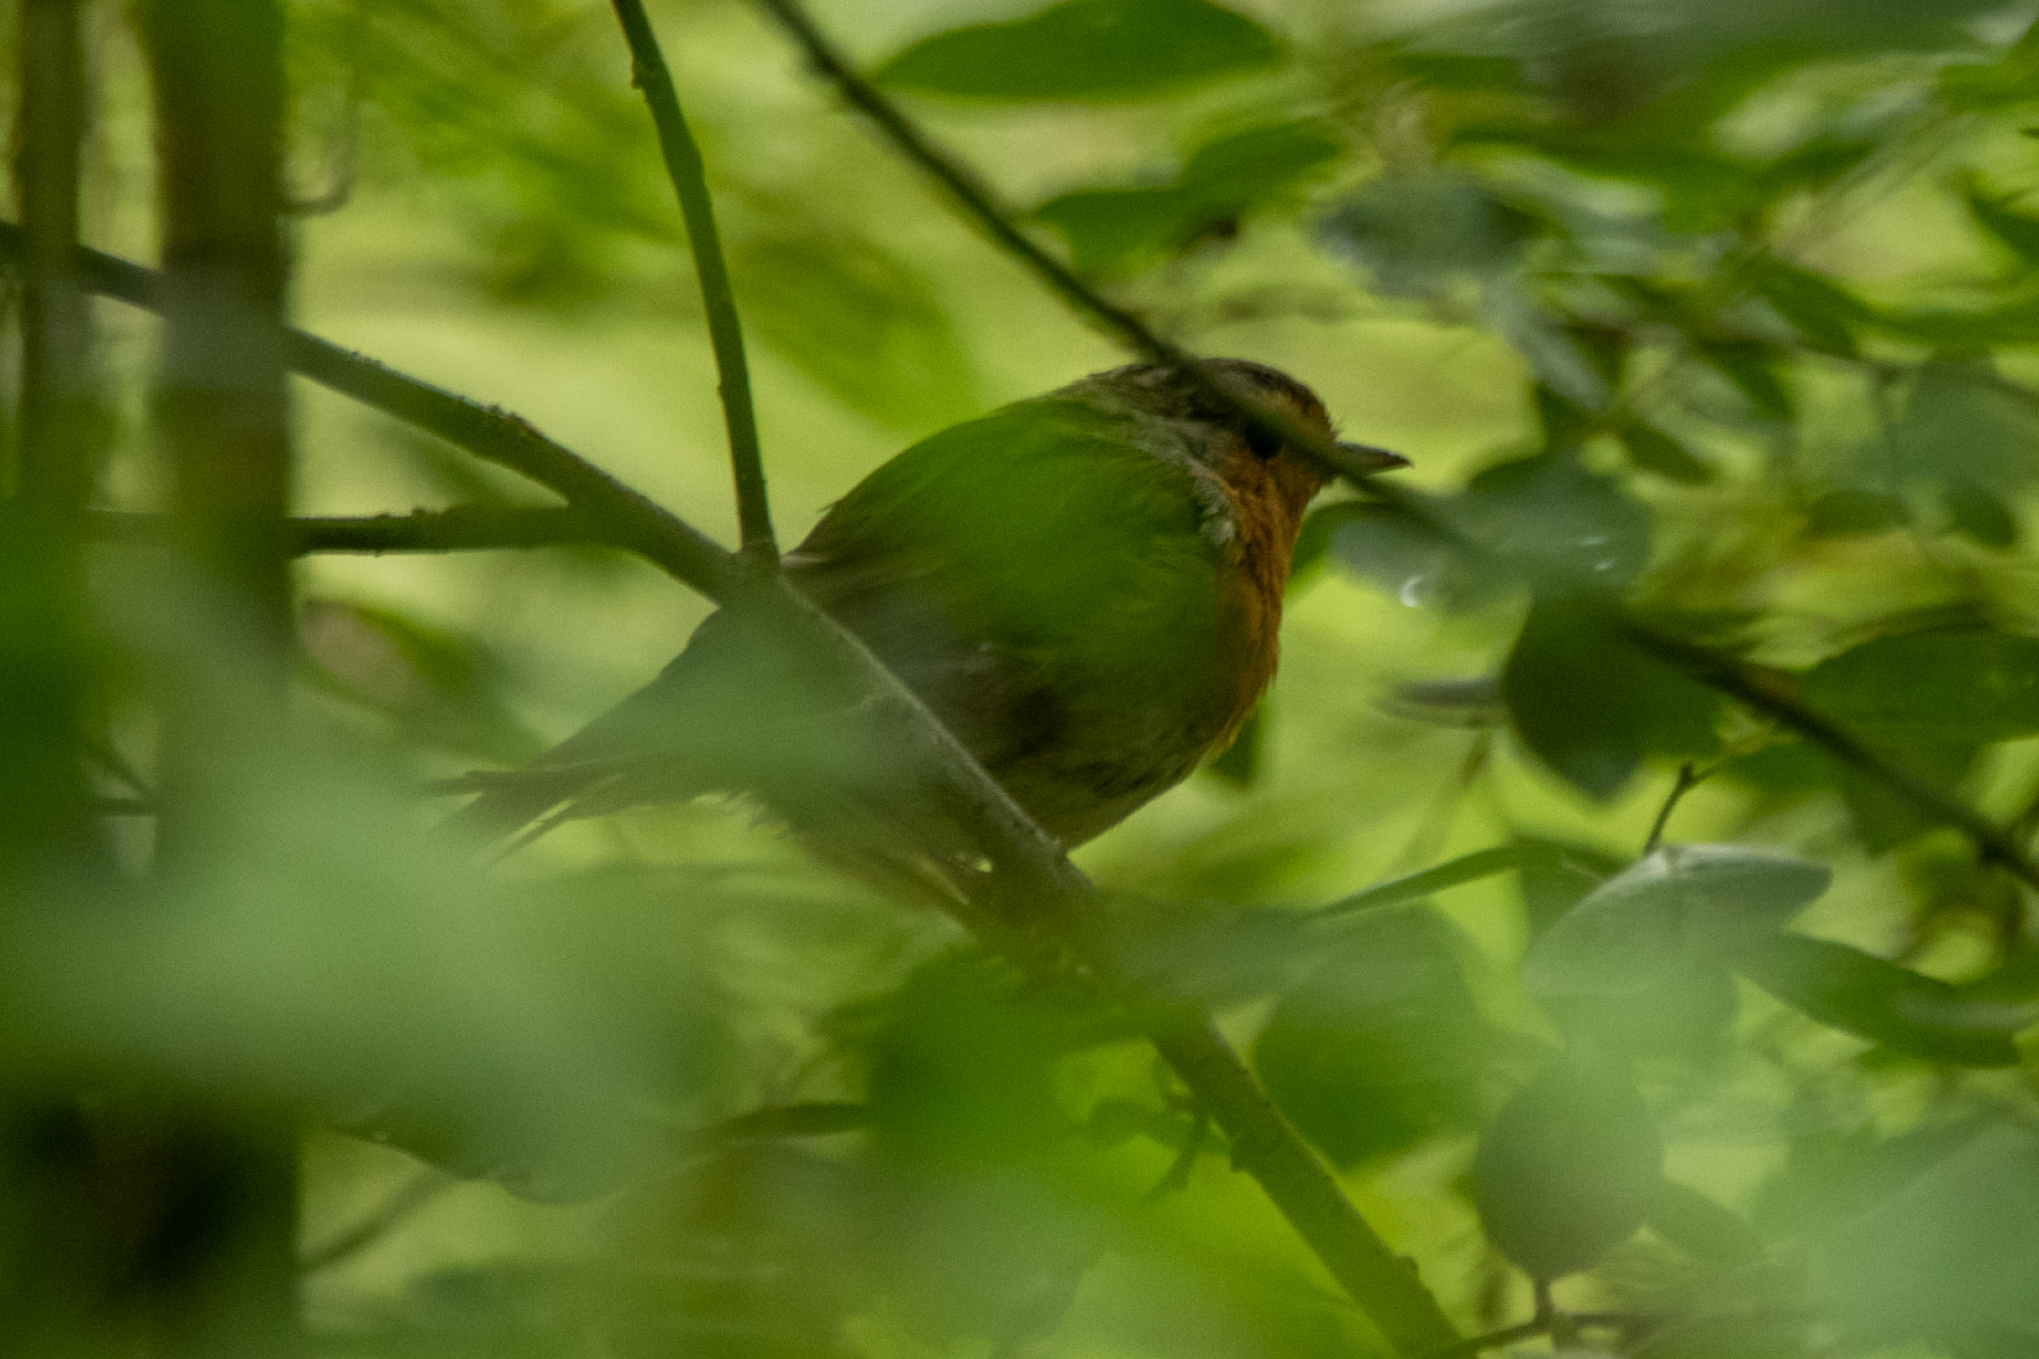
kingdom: Animalia
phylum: Chordata
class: Aves
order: Passeriformes
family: Muscicapidae
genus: Erithacus
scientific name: Erithacus rubecula
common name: European robin
